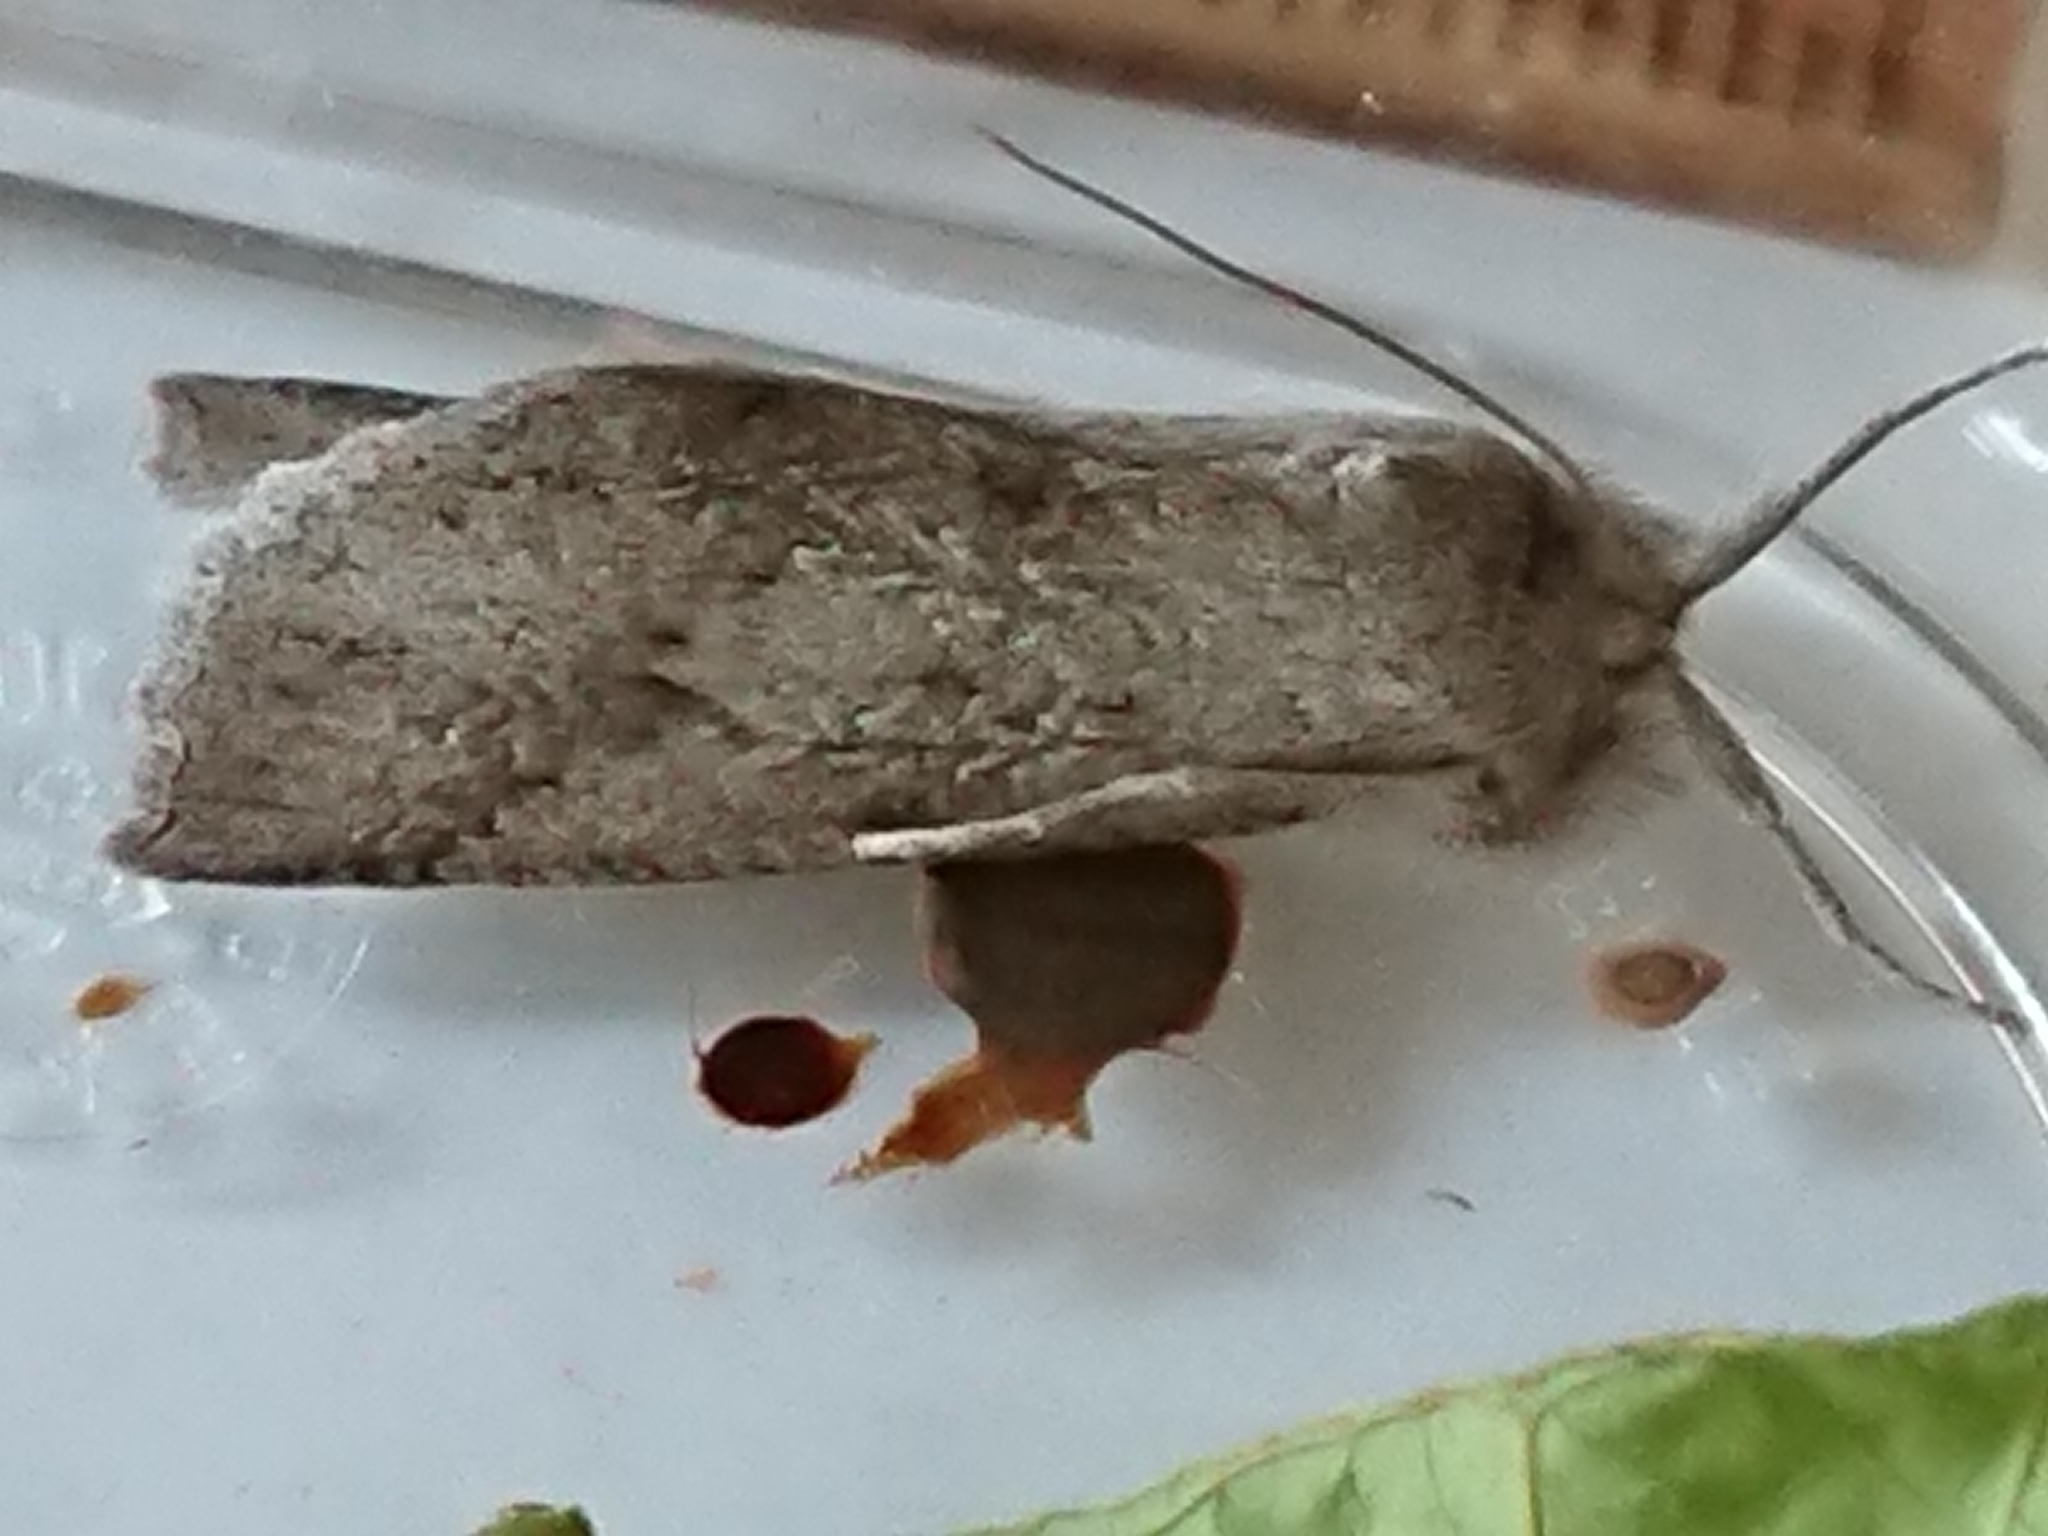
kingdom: Animalia
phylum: Arthropoda
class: Insecta
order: Lepidoptera
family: Geometridae
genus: Declana
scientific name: Declana leptomera
